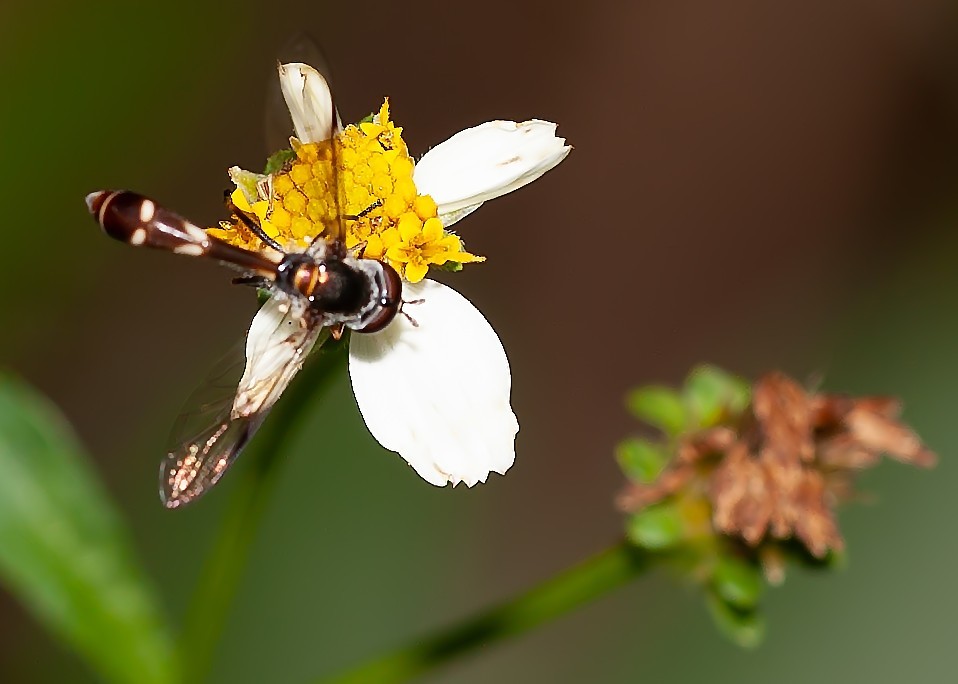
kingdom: Animalia
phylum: Arthropoda
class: Insecta
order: Diptera
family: Syrphidae
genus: Dioprosopa
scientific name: Dioprosopa clavatus
